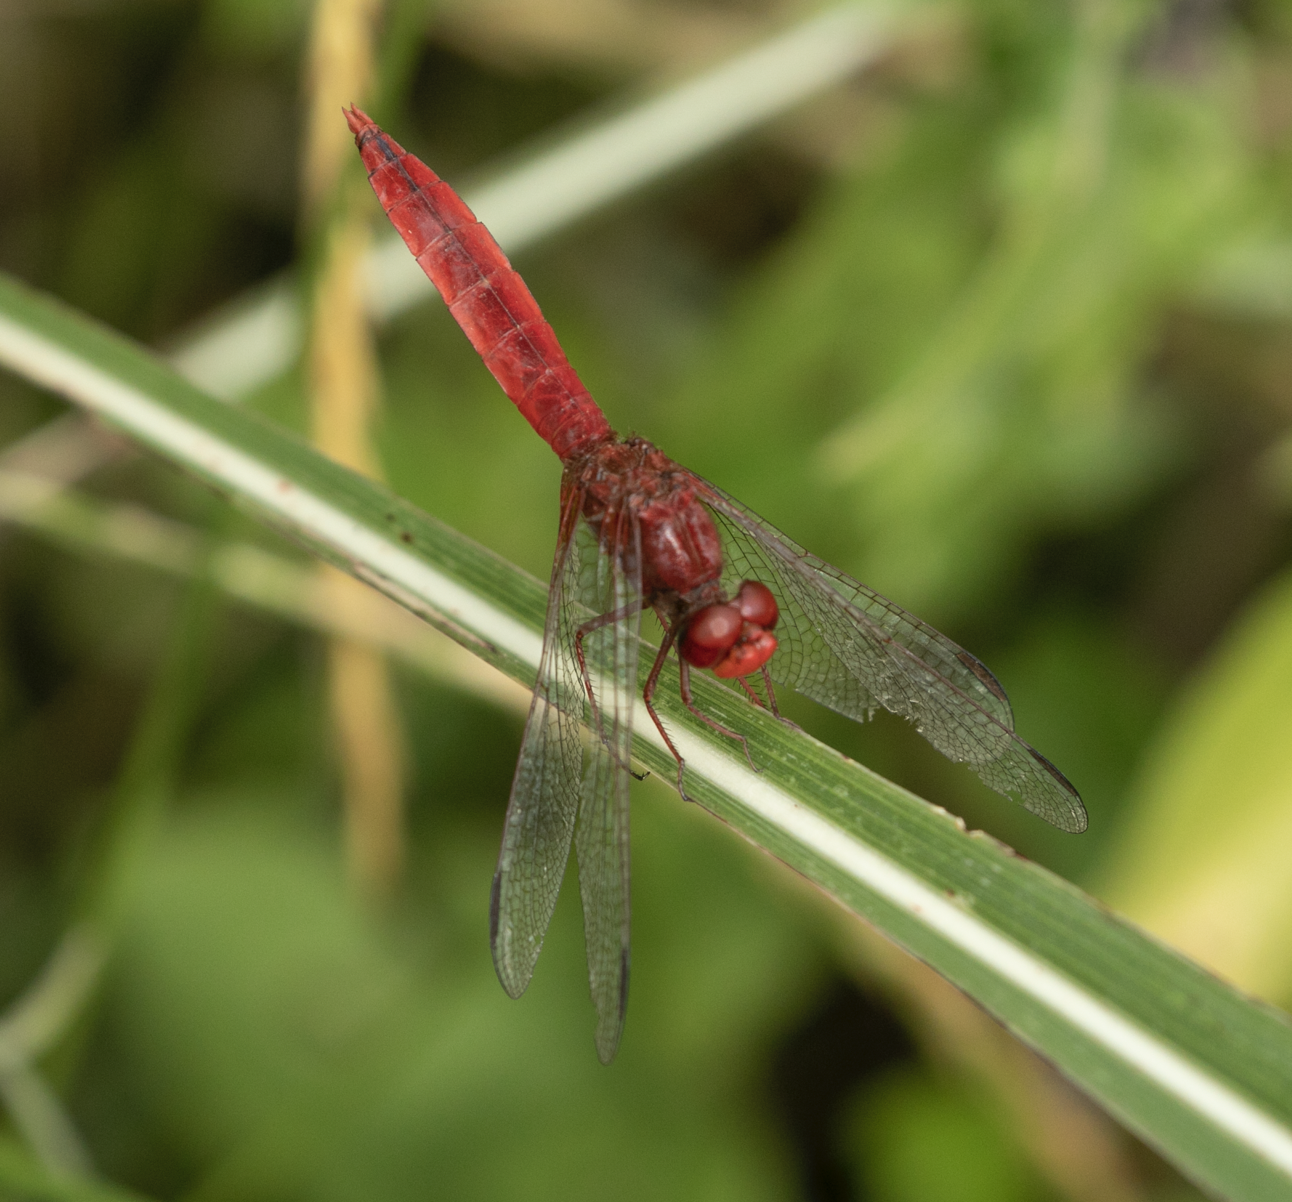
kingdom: Animalia
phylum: Arthropoda
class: Insecta
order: Odonata
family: Libellulidae
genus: Crocothemis
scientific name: Crocothemis erythraea
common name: Scarlet dragonfly
